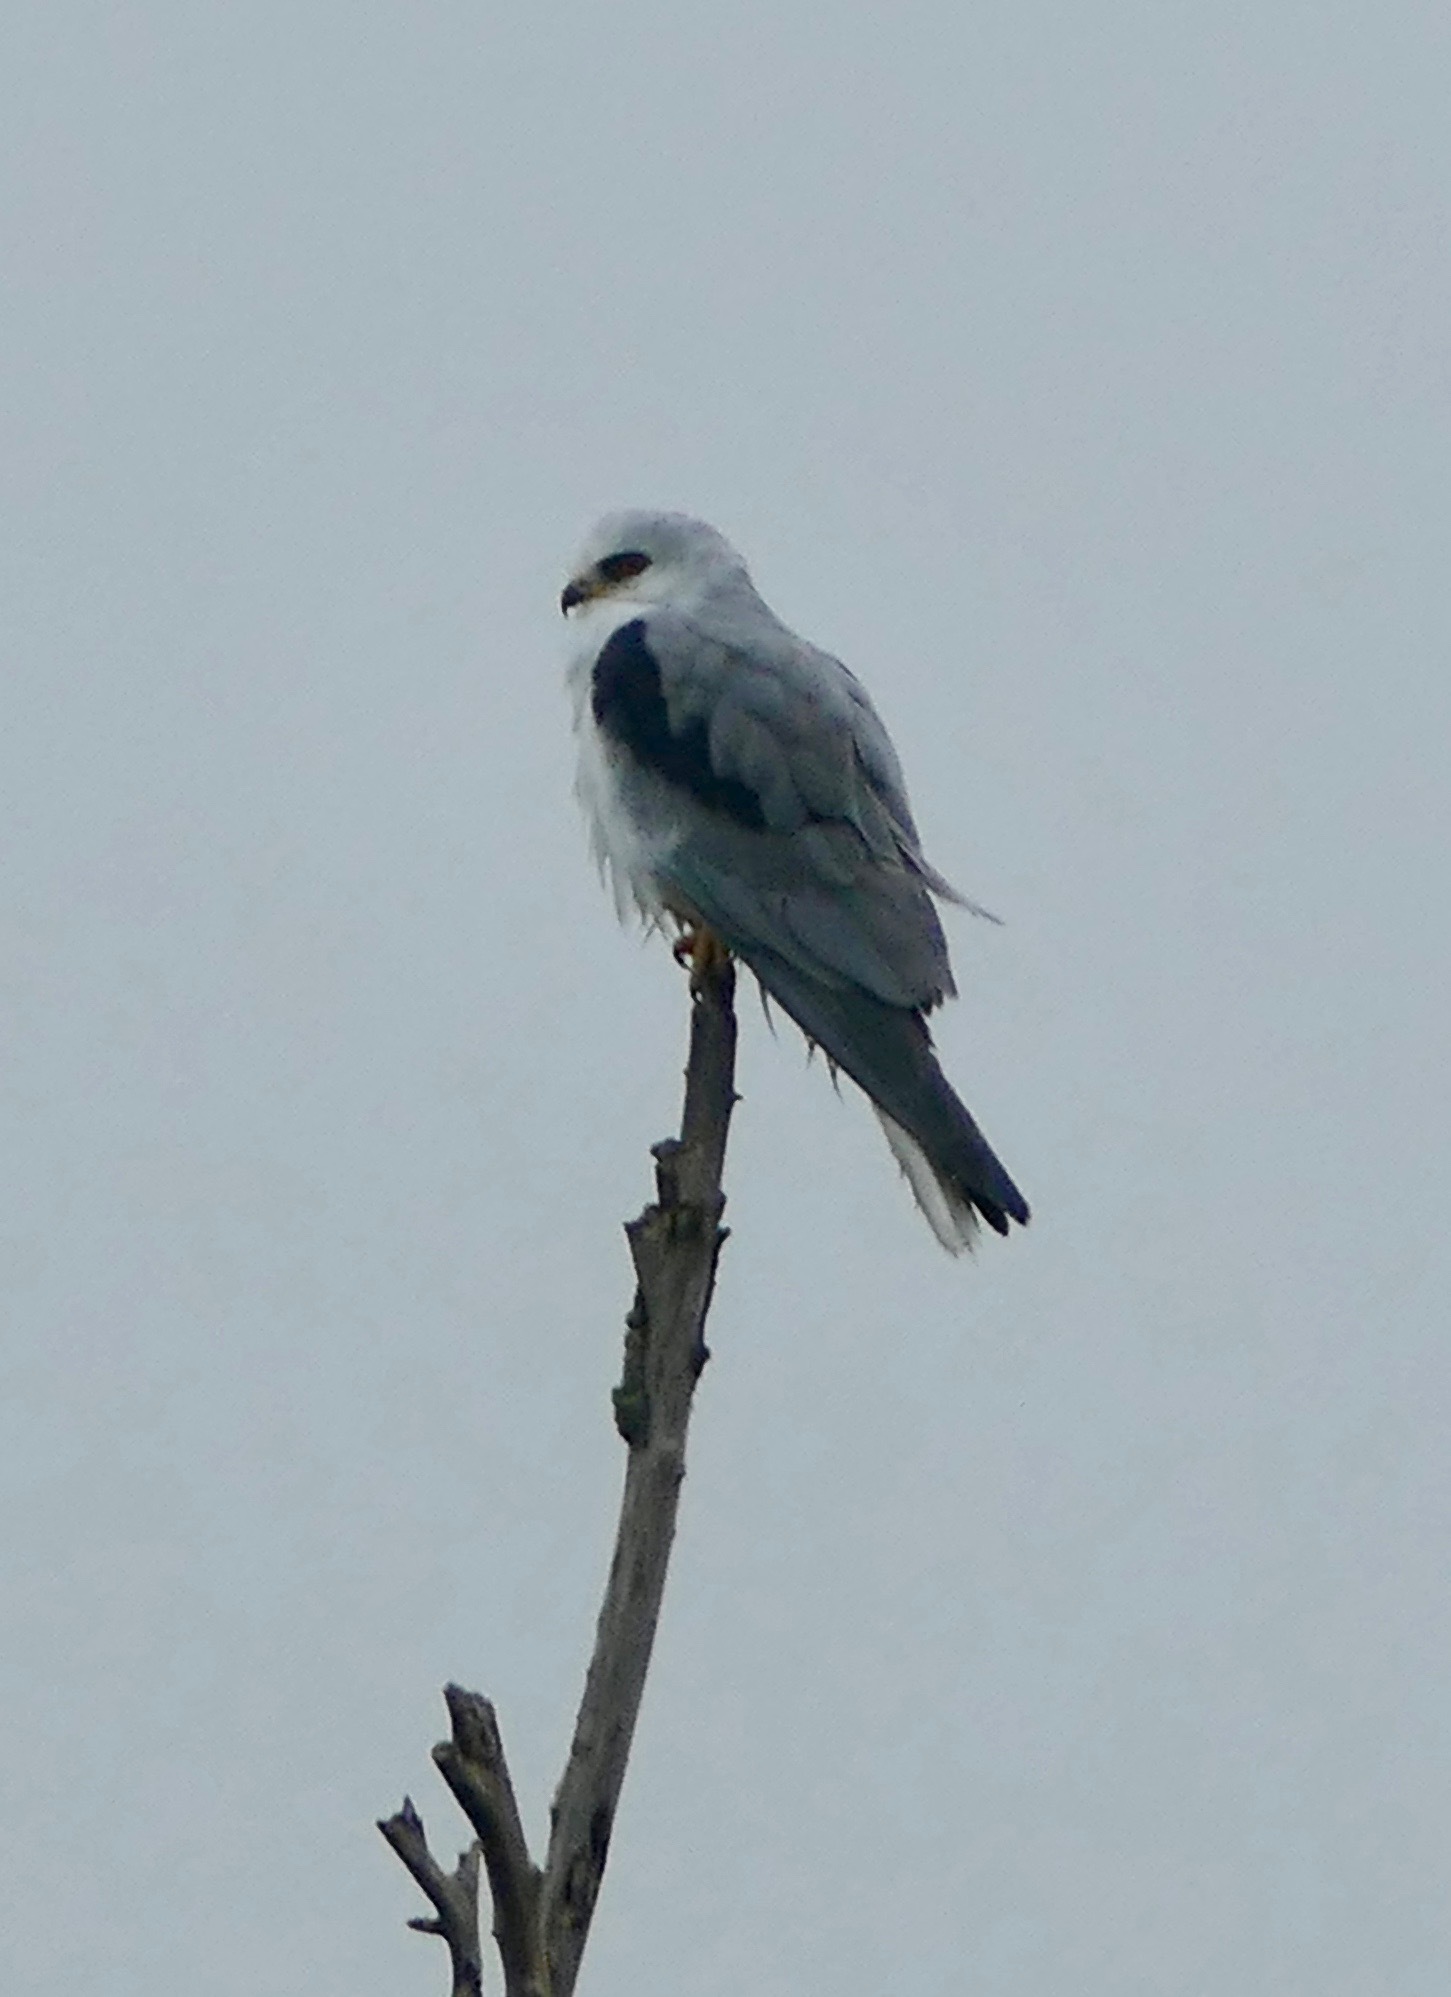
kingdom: Animalia
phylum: Chordata
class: Aves
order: Accipitriformes
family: Accipitridae
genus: Elanus
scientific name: Elanus leucurus
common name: White-tailed kite
